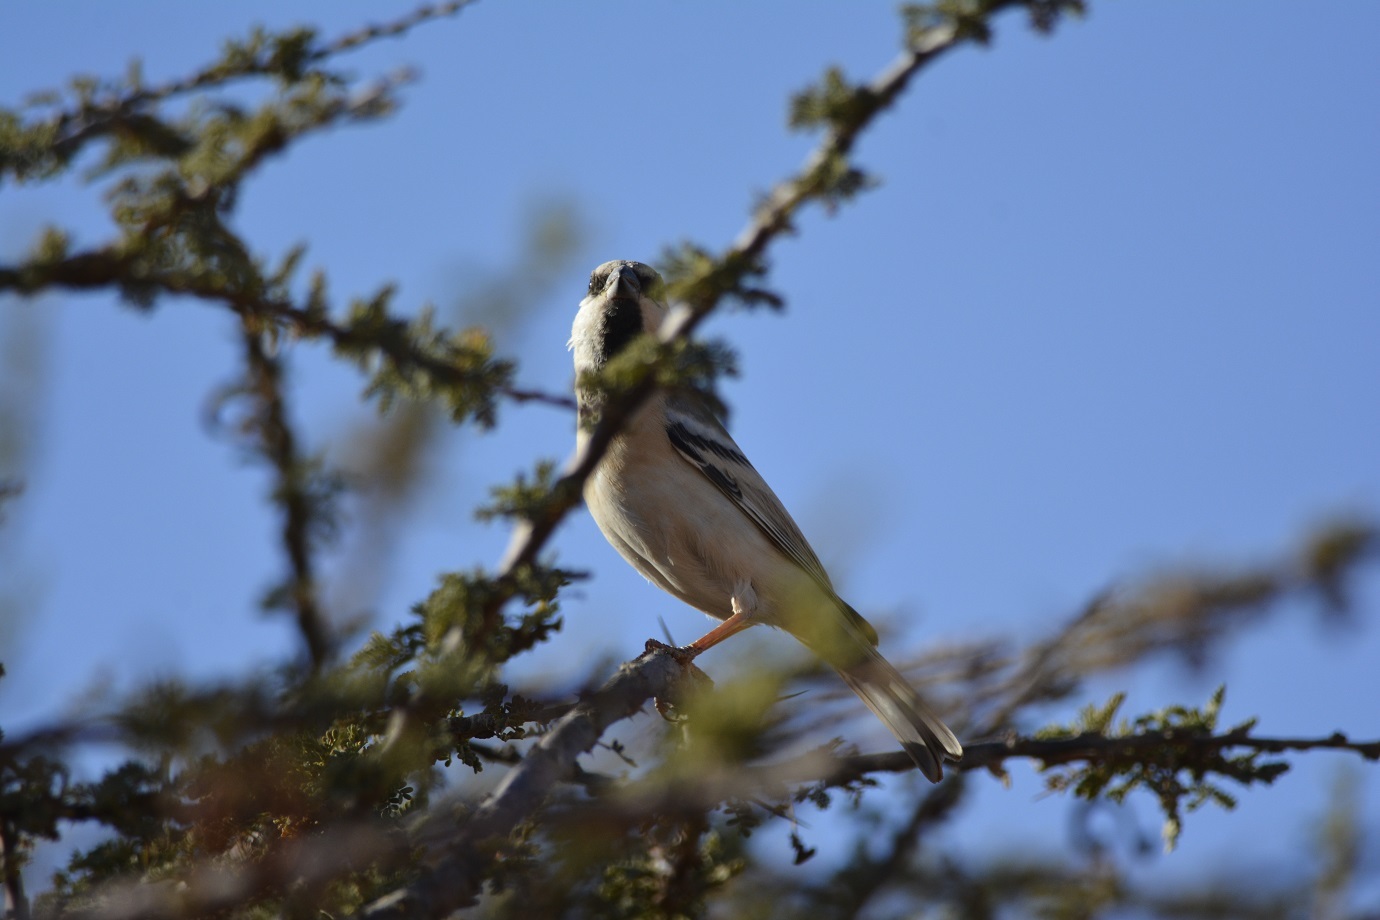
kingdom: Animalia
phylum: Chordata
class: Aves
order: Passeriformes
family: Passeridae
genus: Passer
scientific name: Passer simplex
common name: Desert sparrow
